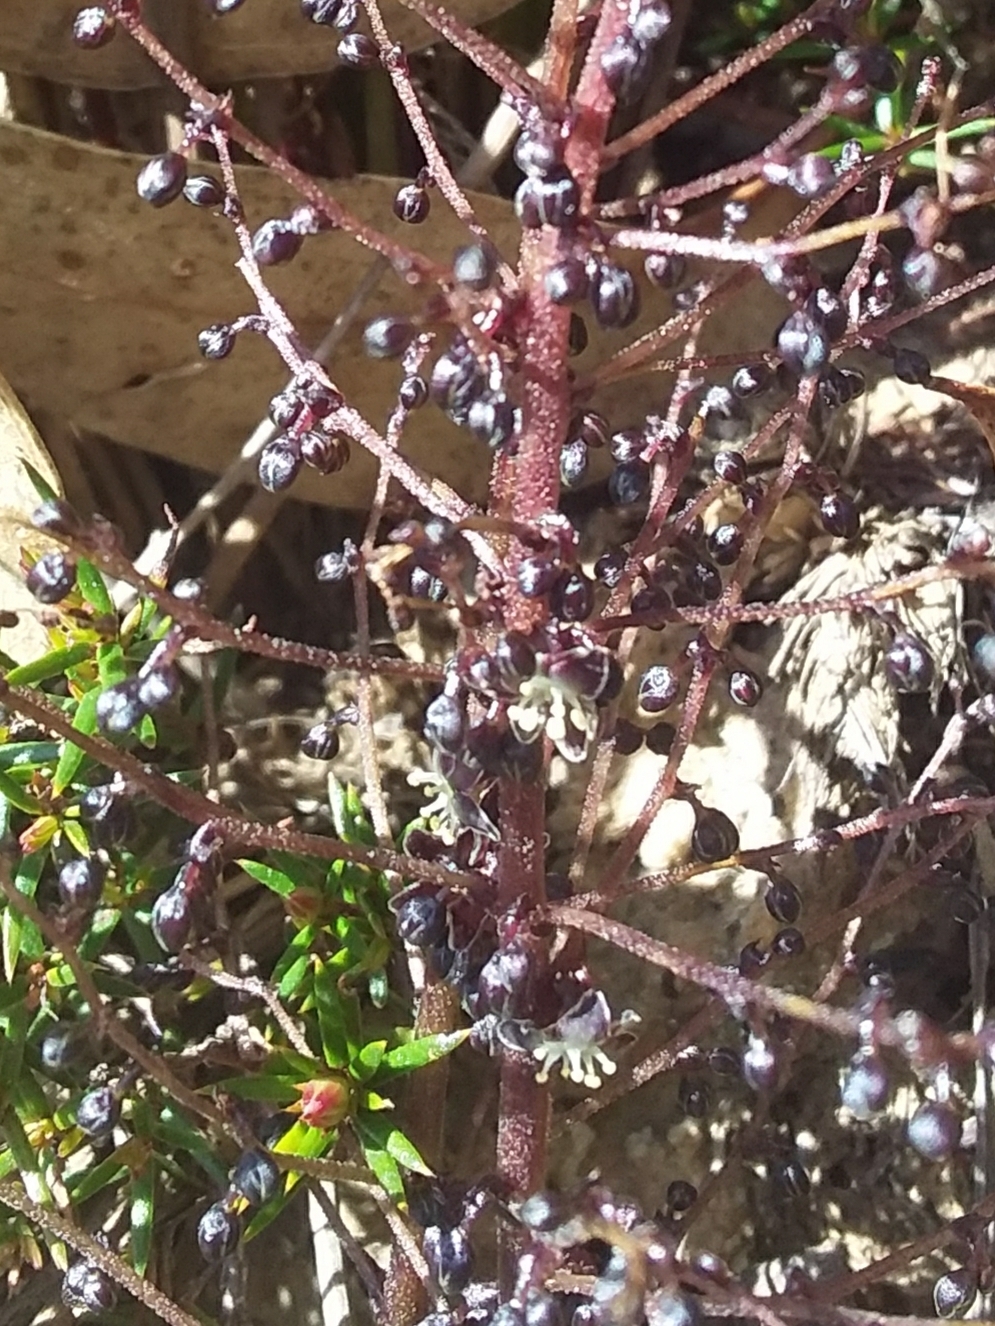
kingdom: Plantae
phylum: Tracheophyta
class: Liliopsida
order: Asparagales
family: Asparagaceae
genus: Lomandra
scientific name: Lomandra micrantha
